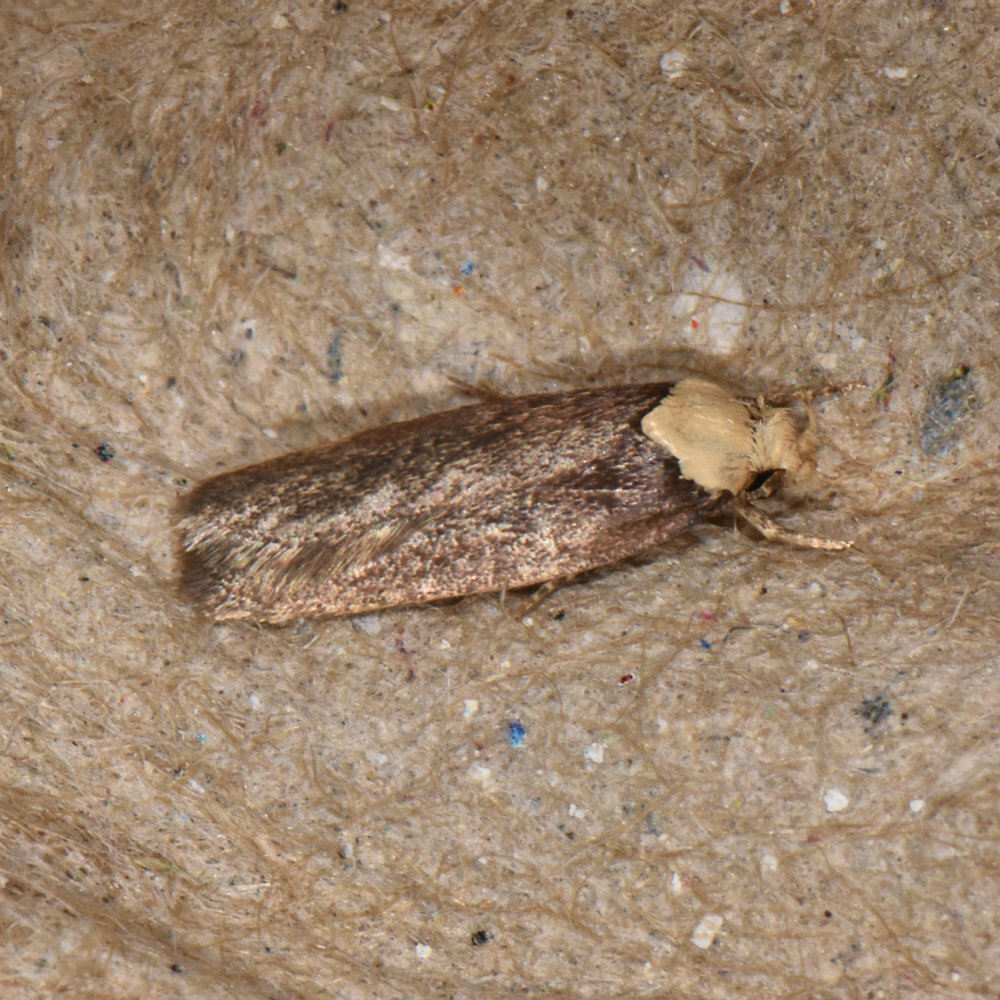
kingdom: Animalia
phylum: Arthropoda
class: Insecta
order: Lepidoptera
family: Depressariidae
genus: Depressaria
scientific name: Depressaria depressana
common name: Lost flat-body
